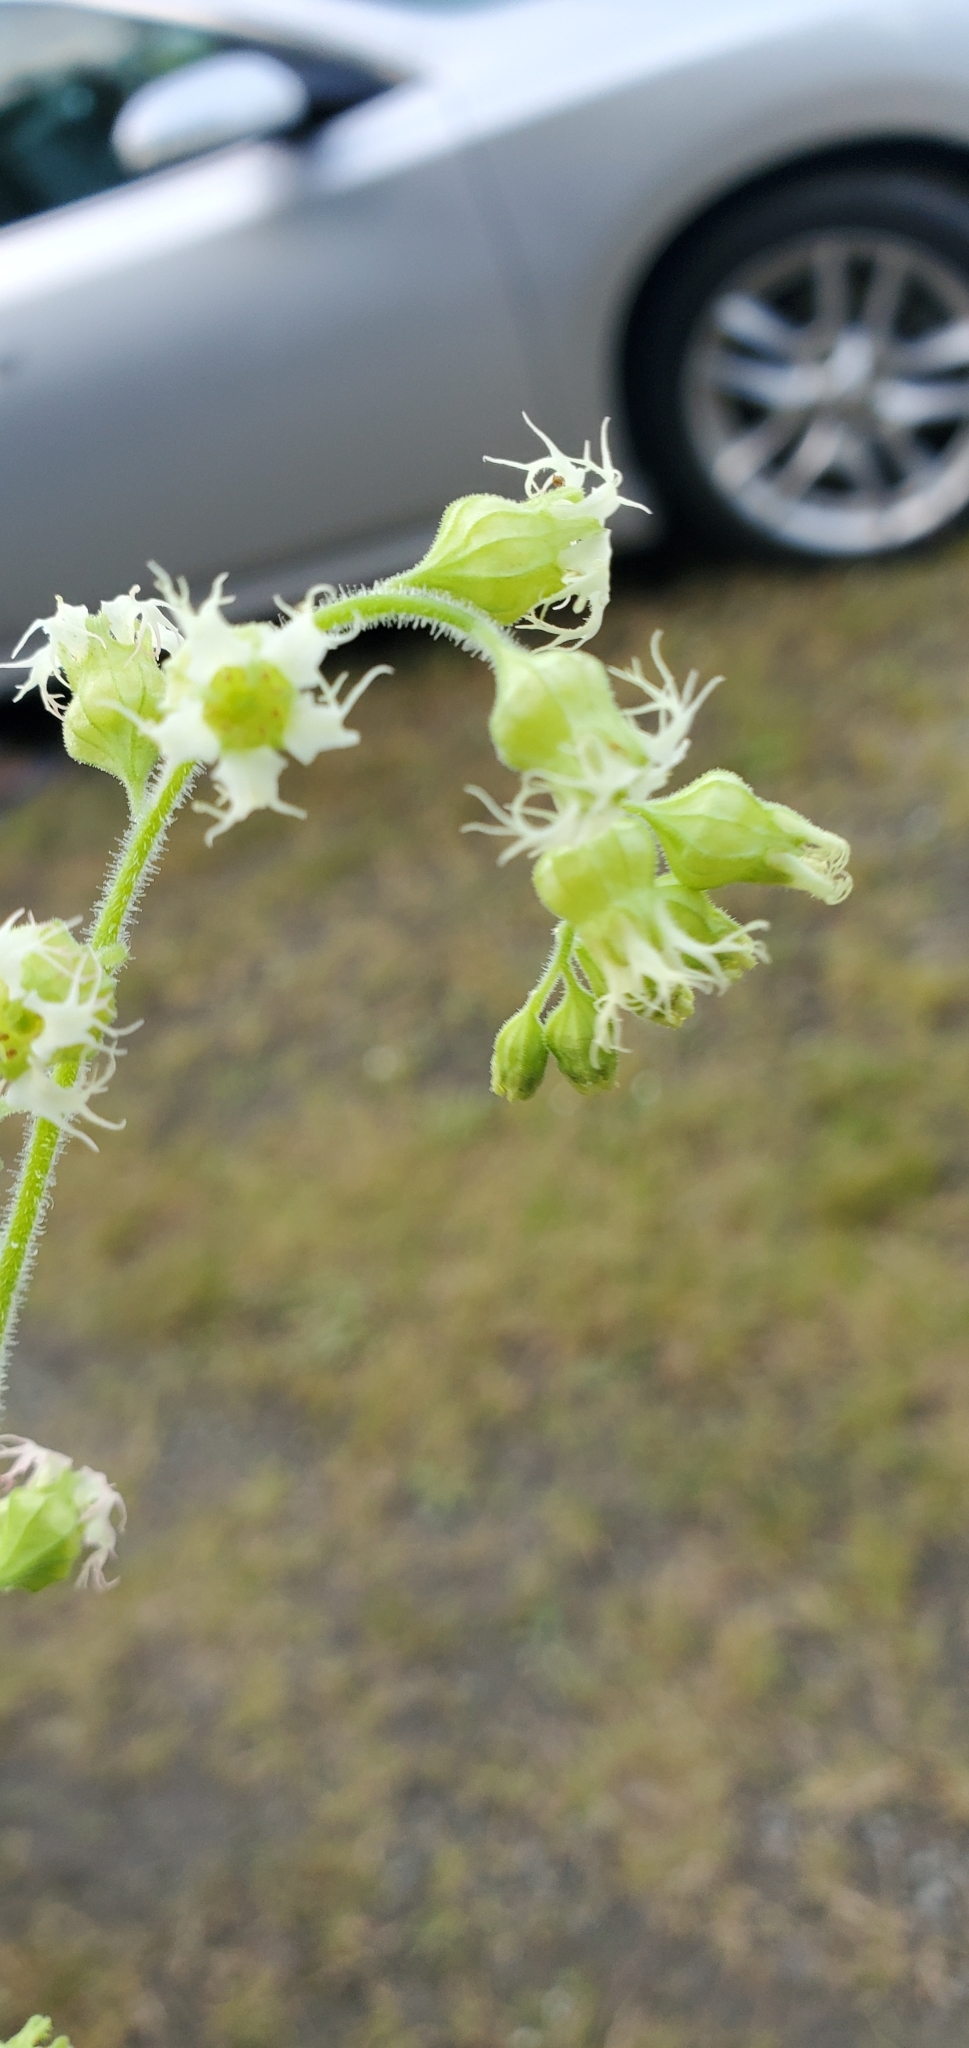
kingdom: Plantae
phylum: Tracheophyta
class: Magnoliopsida
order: Saxifragales
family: Saxifragaceae
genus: Tellima
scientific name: Tellima grandiflora
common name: Fringecups
